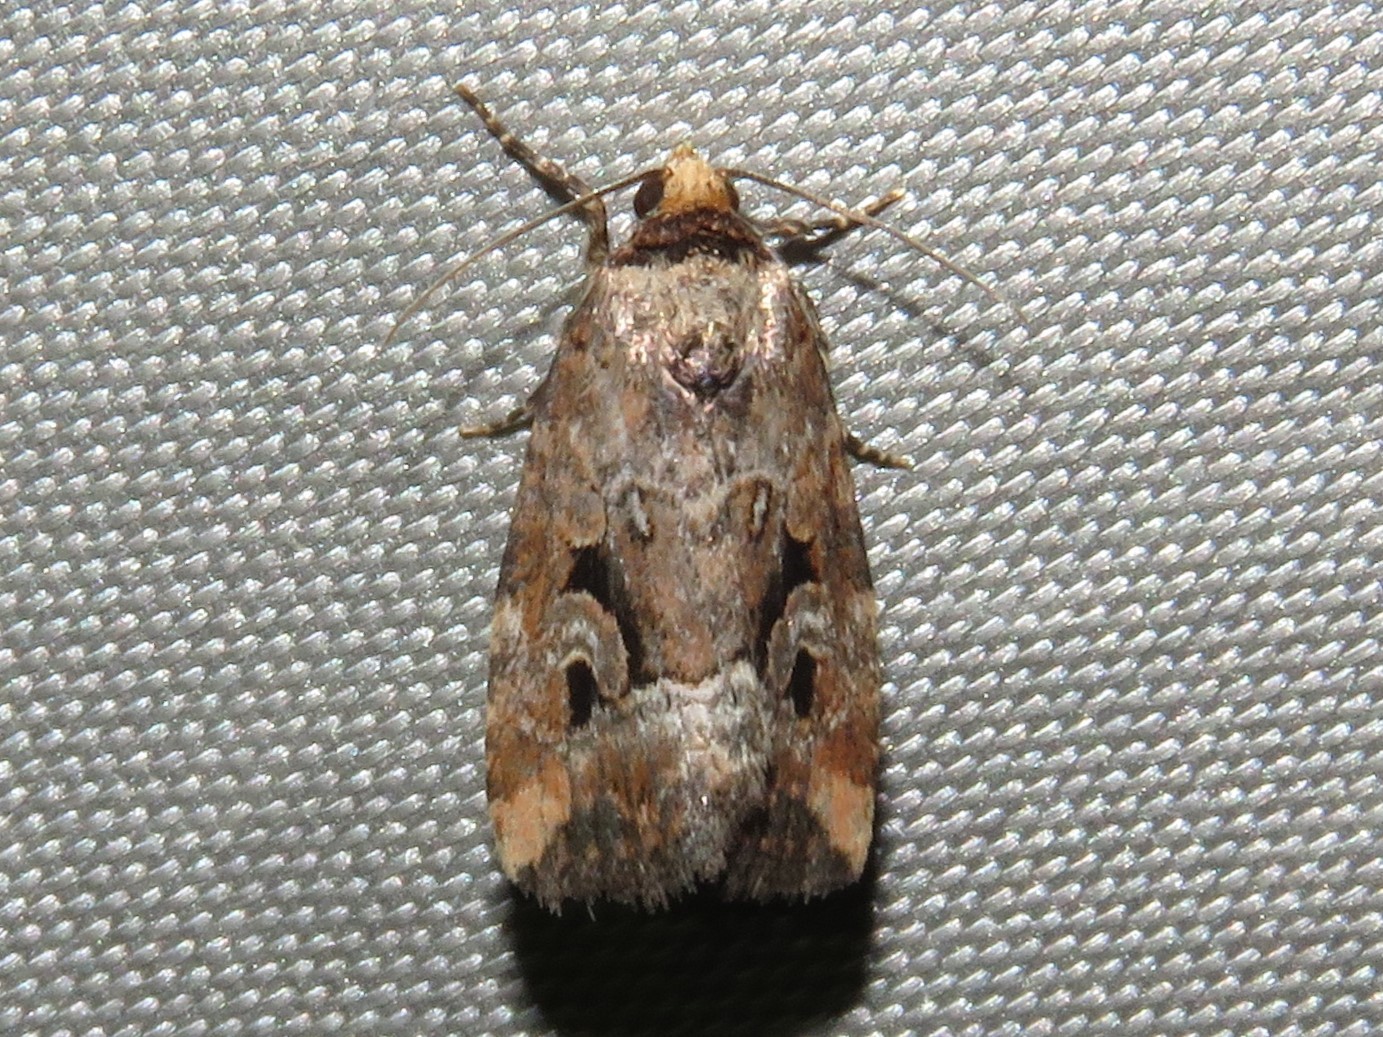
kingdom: Animalia
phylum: Arthropoda
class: Insecta
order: Lepidoptera
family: Noctuidae
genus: Elaphria
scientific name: Elaphria alapallida
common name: Pale-winged midget
